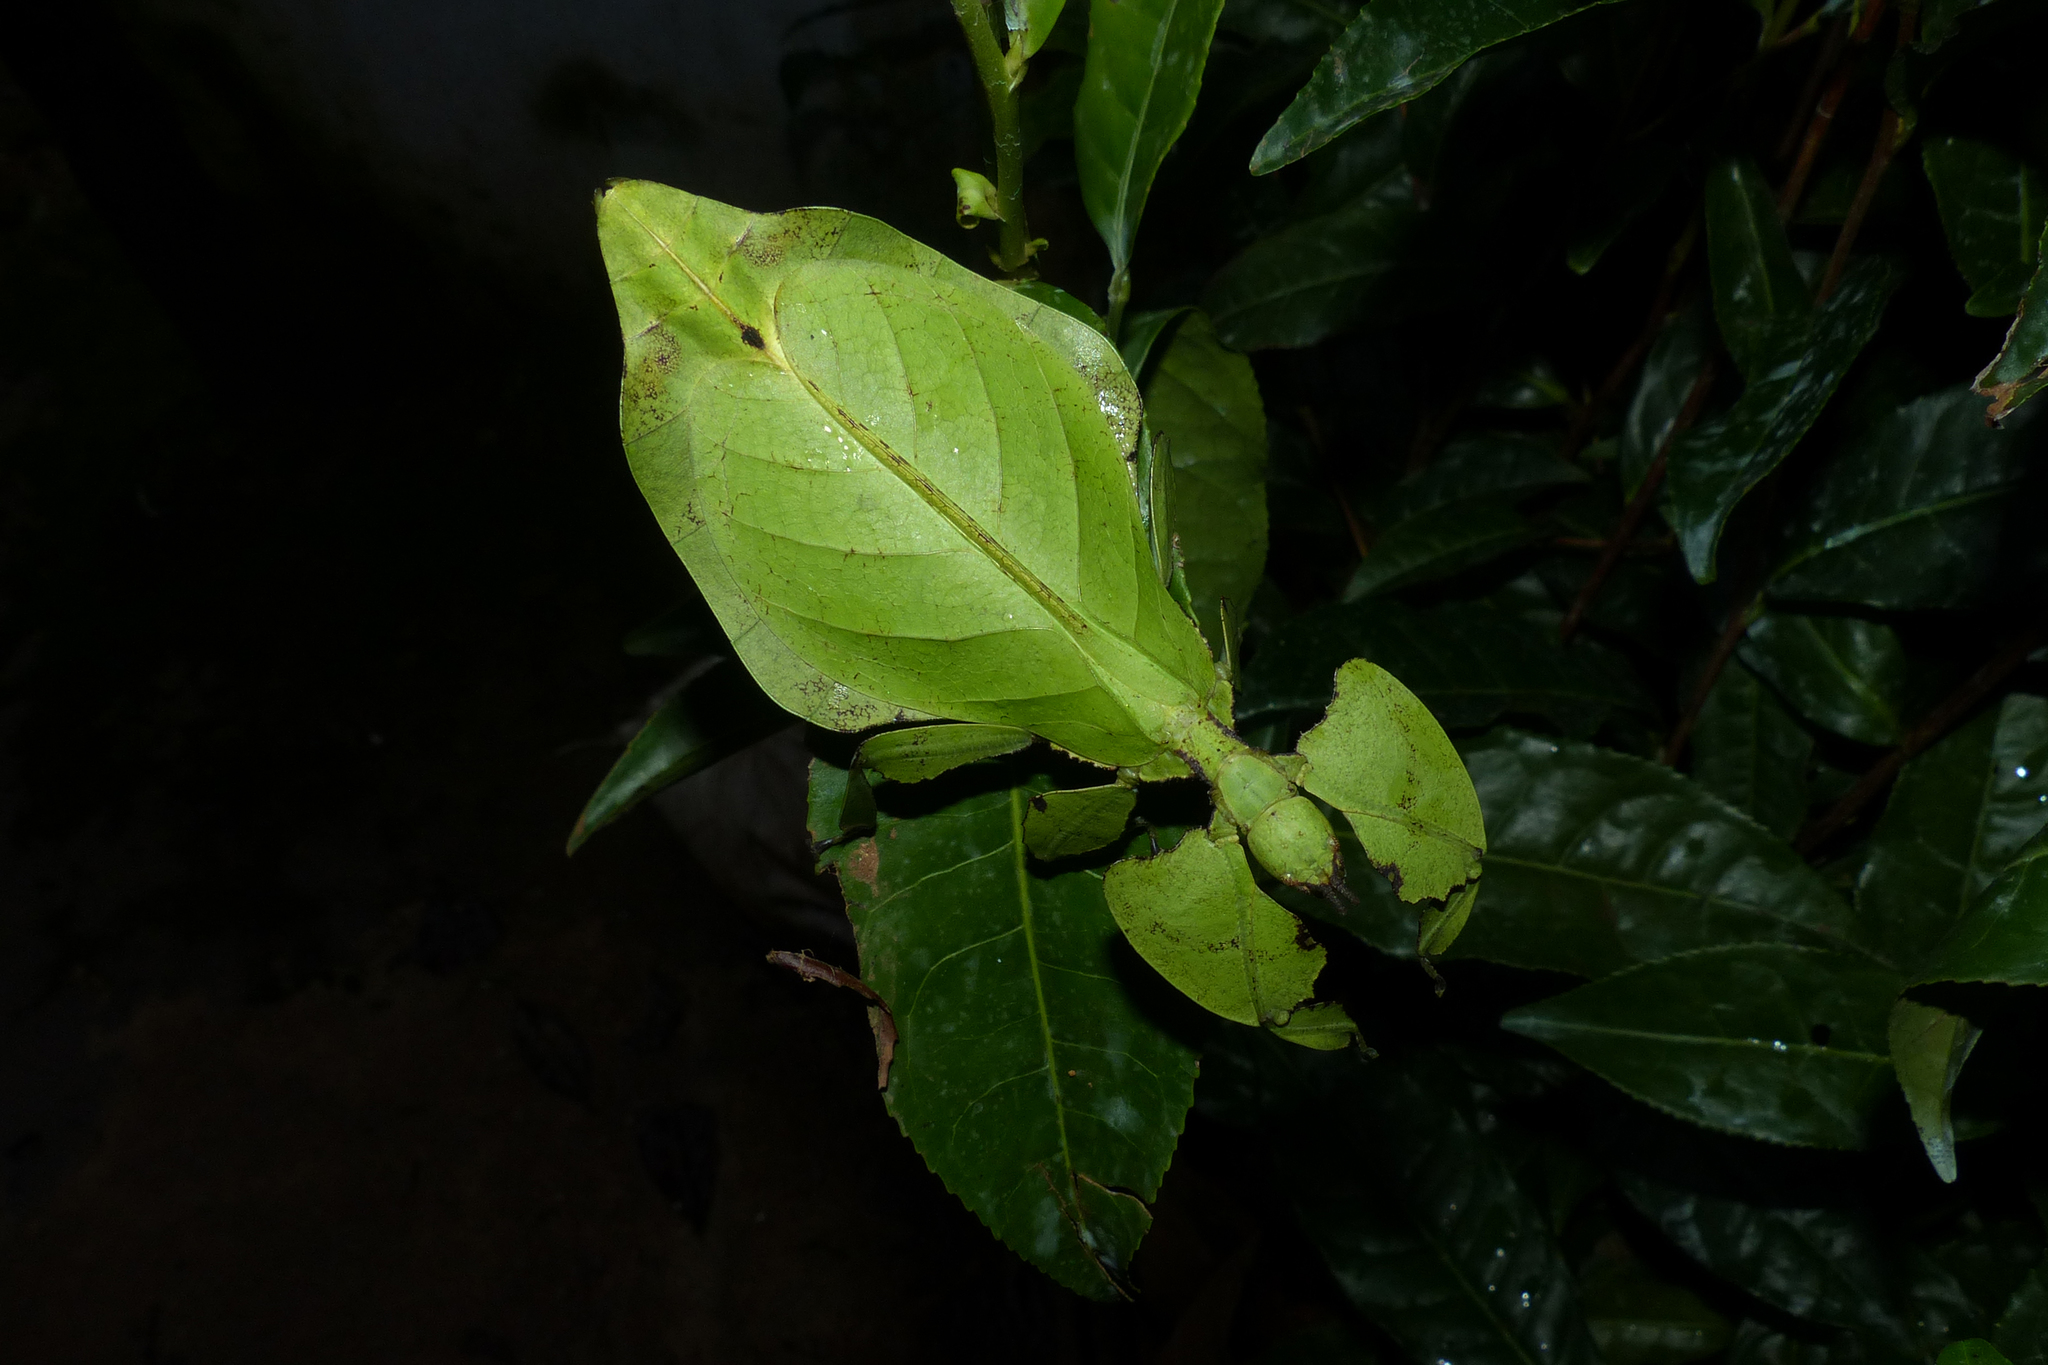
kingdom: Animalia
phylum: Arthropoda
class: Insecta
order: Phasmida
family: Phylliidae
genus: Pulchriphyllium
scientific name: Pulchriphyllium anangu
